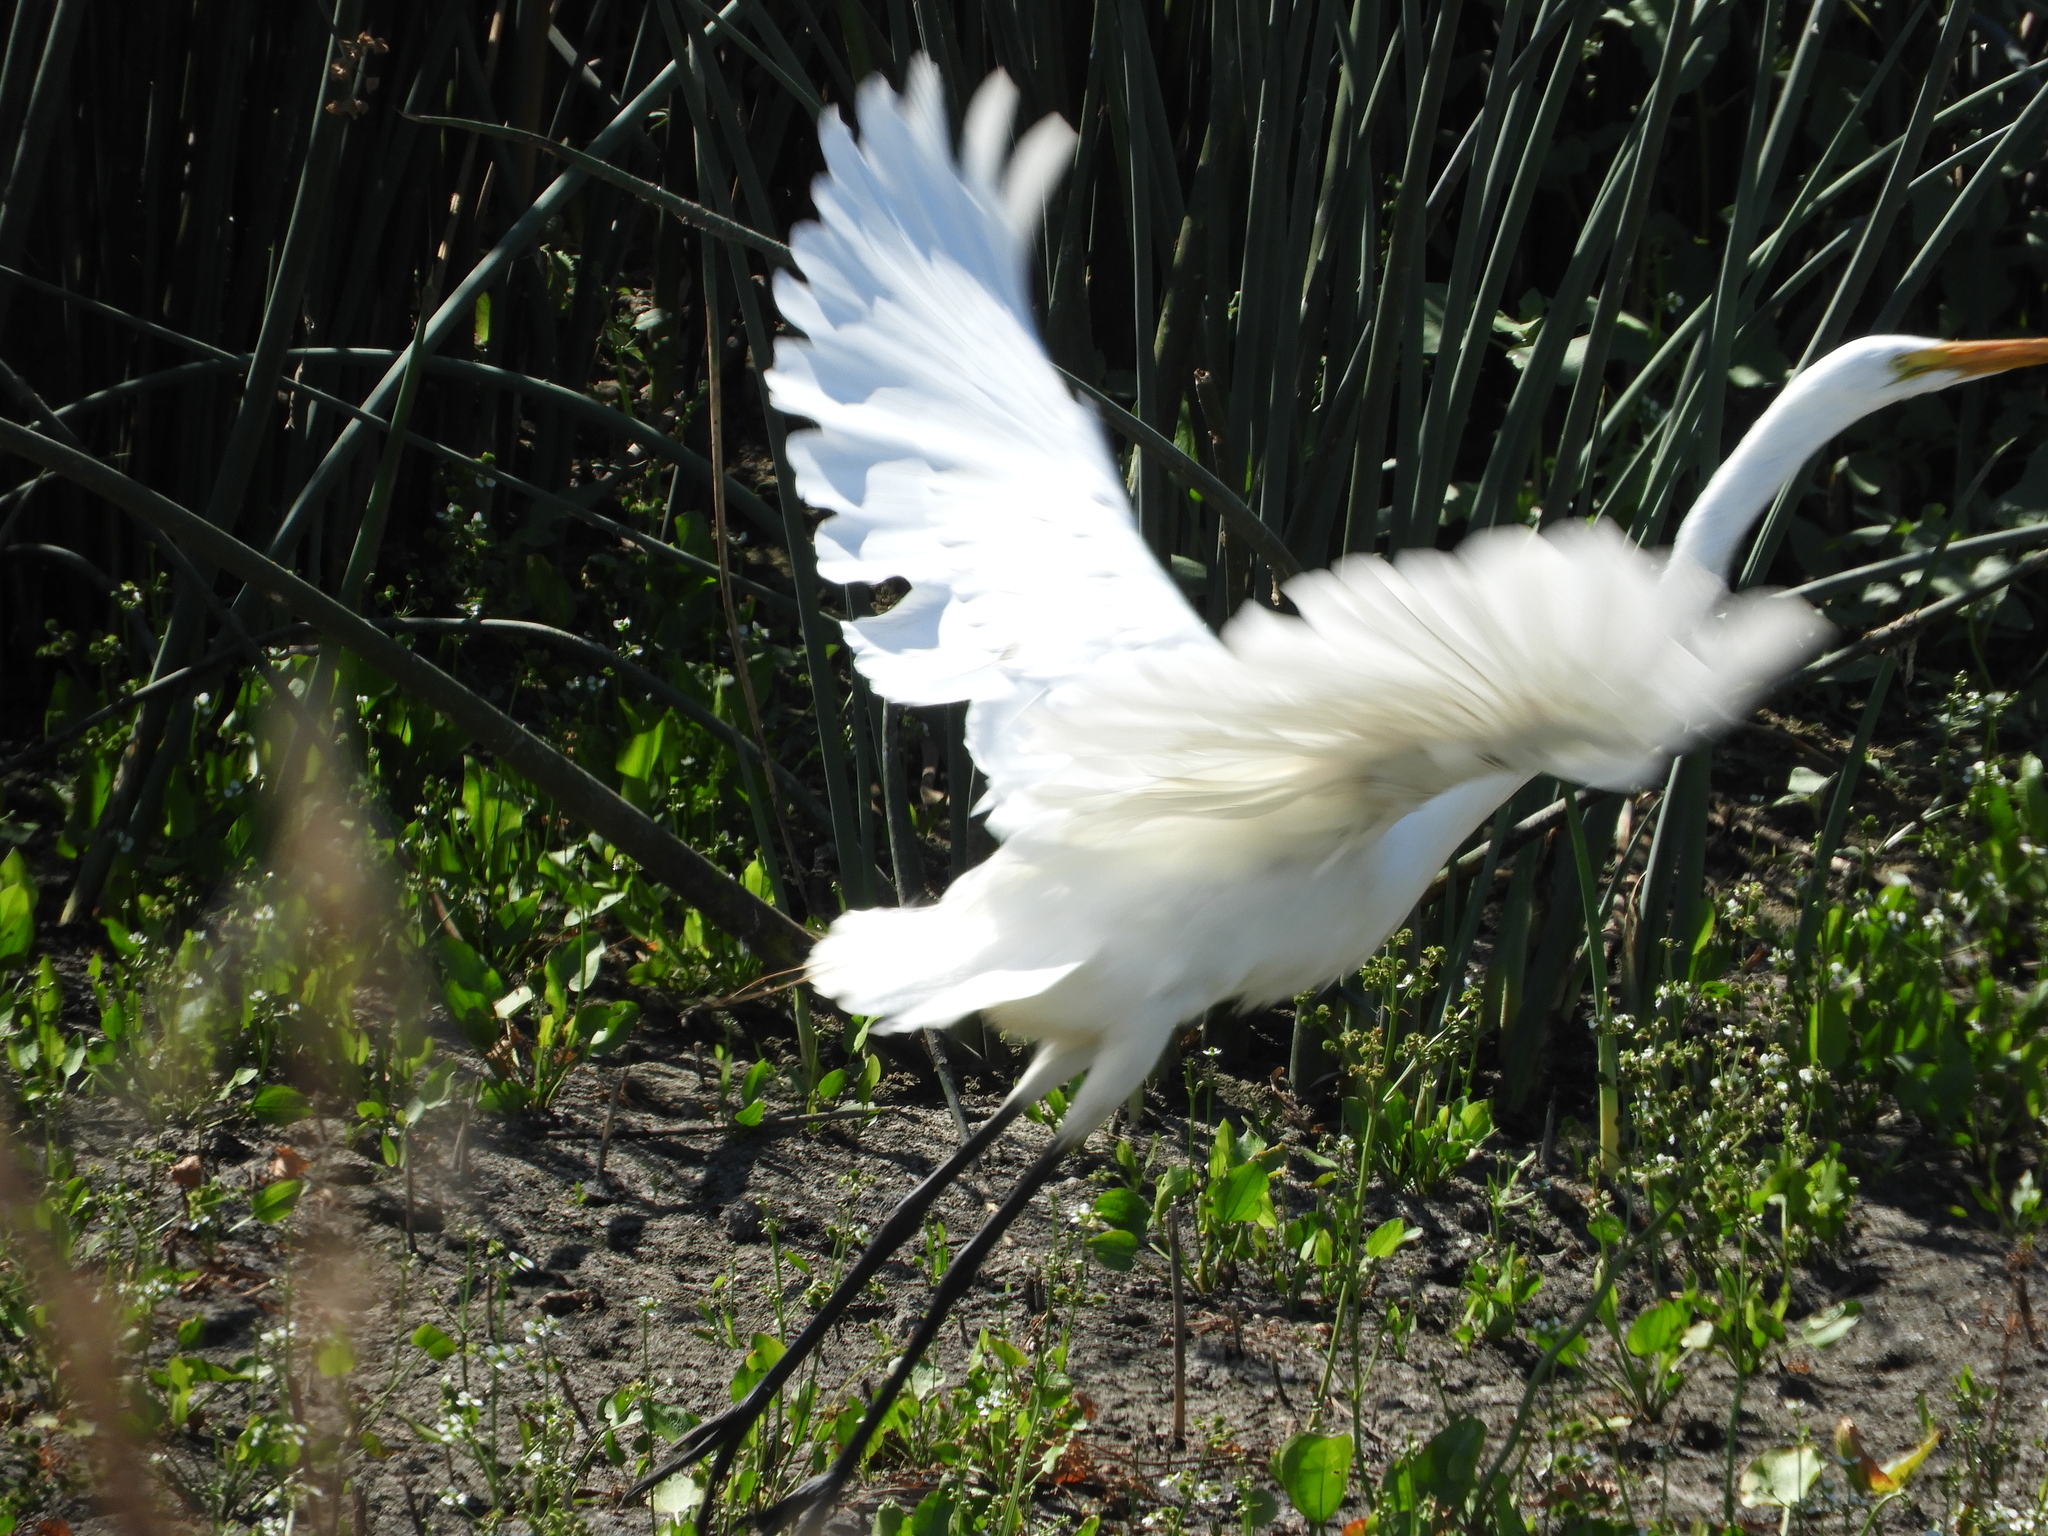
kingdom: Animalia
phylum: Chordata
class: Aves
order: Pelecaniformes
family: Ardeidae
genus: Ardea
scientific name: Ardea alba
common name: Great egret
